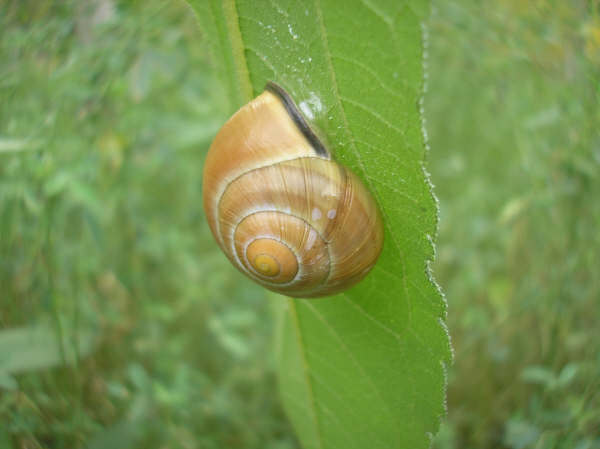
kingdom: Animalia
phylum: Mollusca
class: Gastropoda
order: Stylommatophora
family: Helicidae
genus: Cepaea
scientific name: Cepaea nemoralis
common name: Grovesnail
